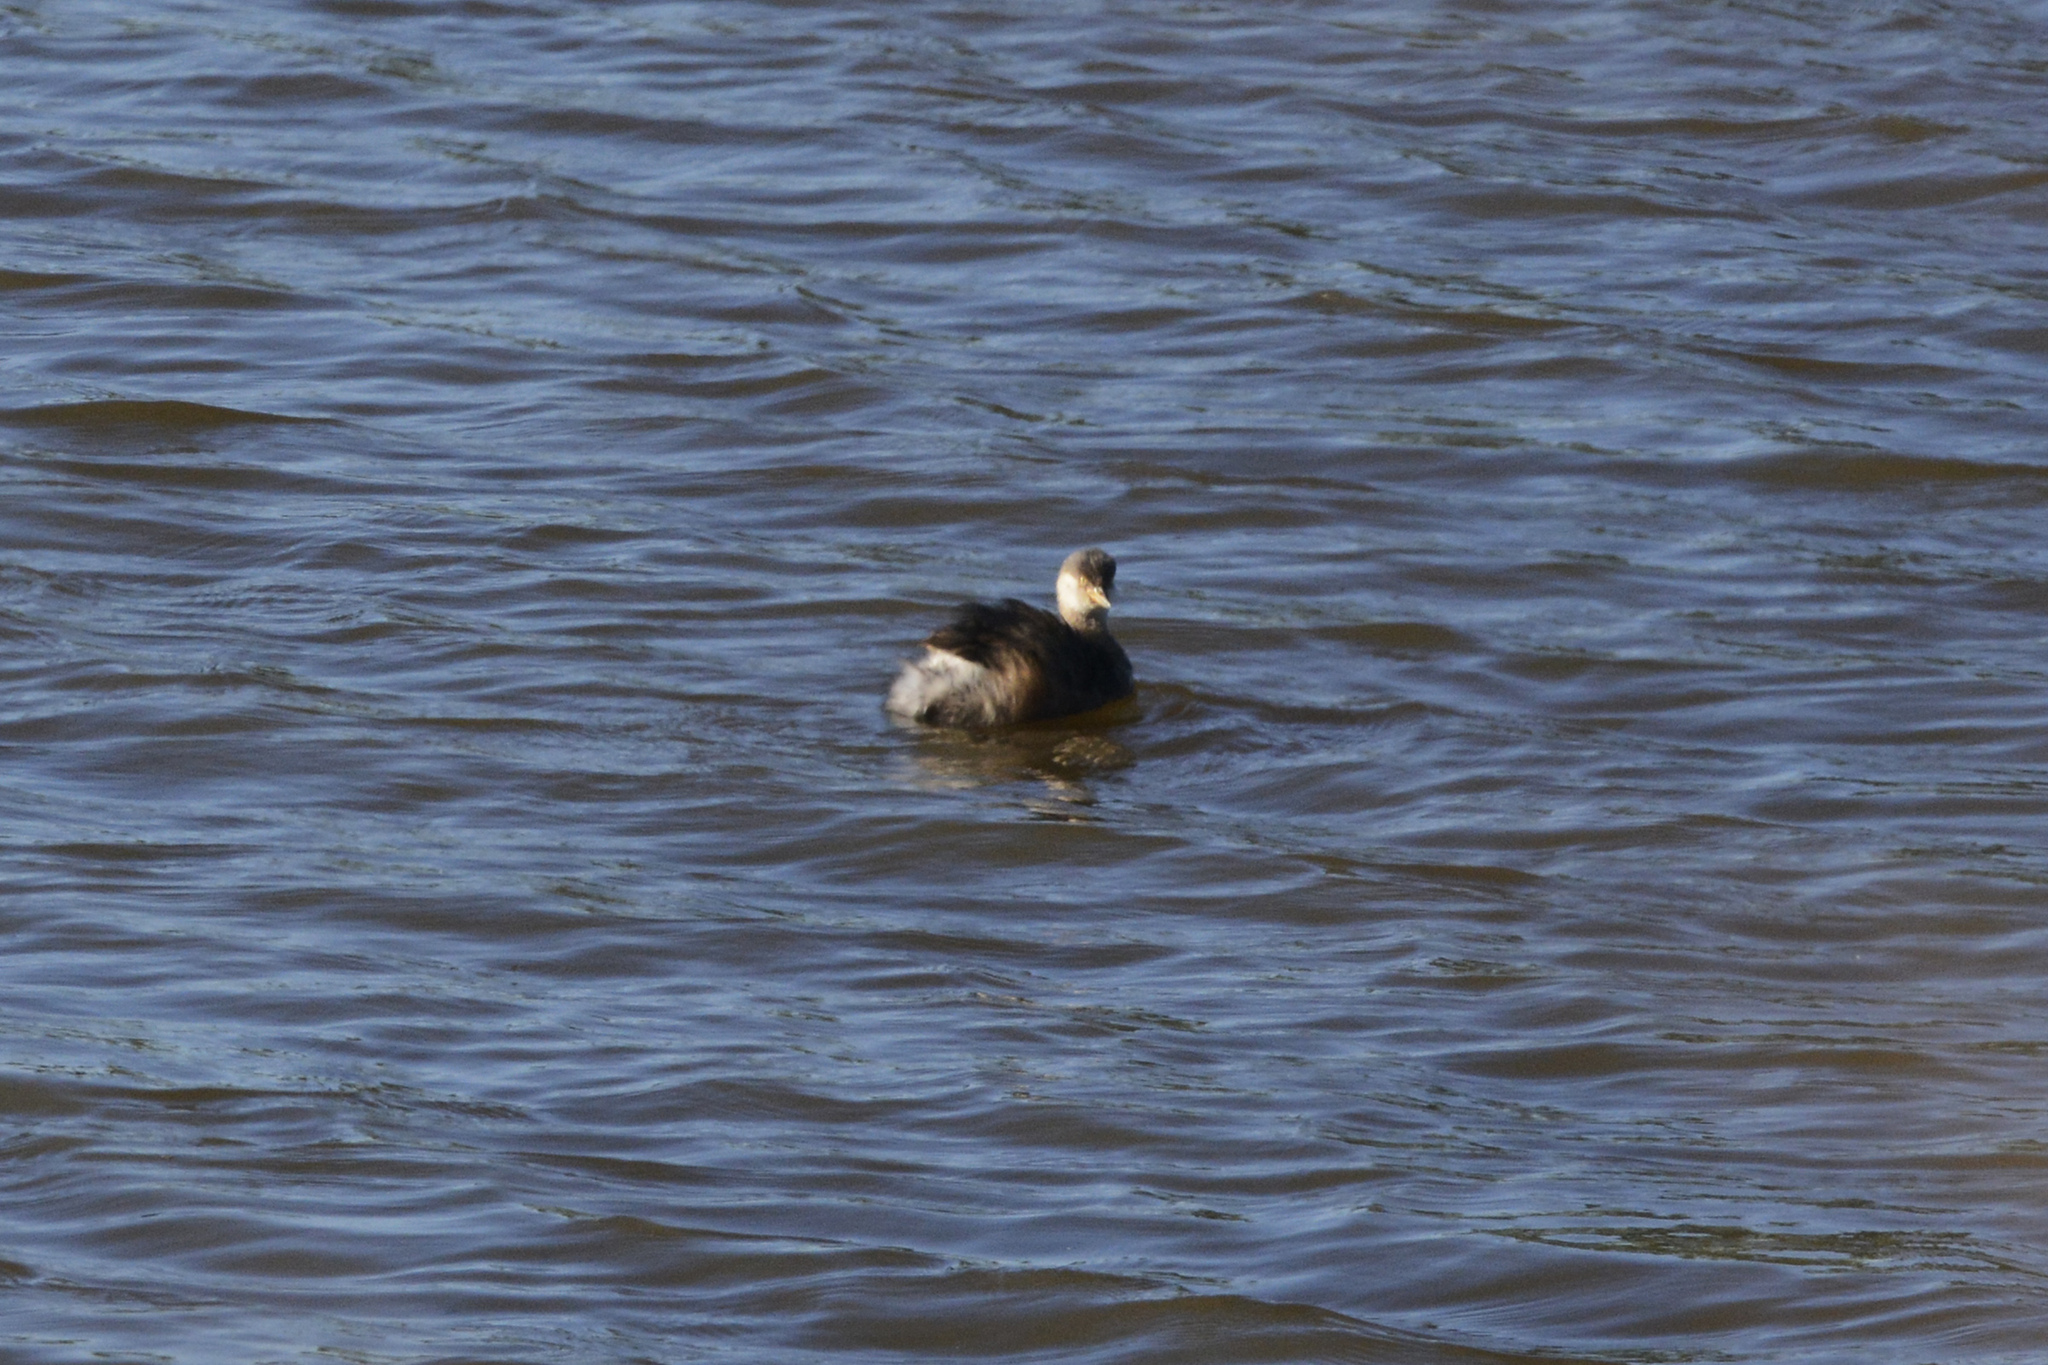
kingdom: Animalia
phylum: Chordata
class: Aves
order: Podicipediformes
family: Podicipedidae
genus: Tachybaptus
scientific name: Tachybaptus novaehollandiae
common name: Australasian grebe
